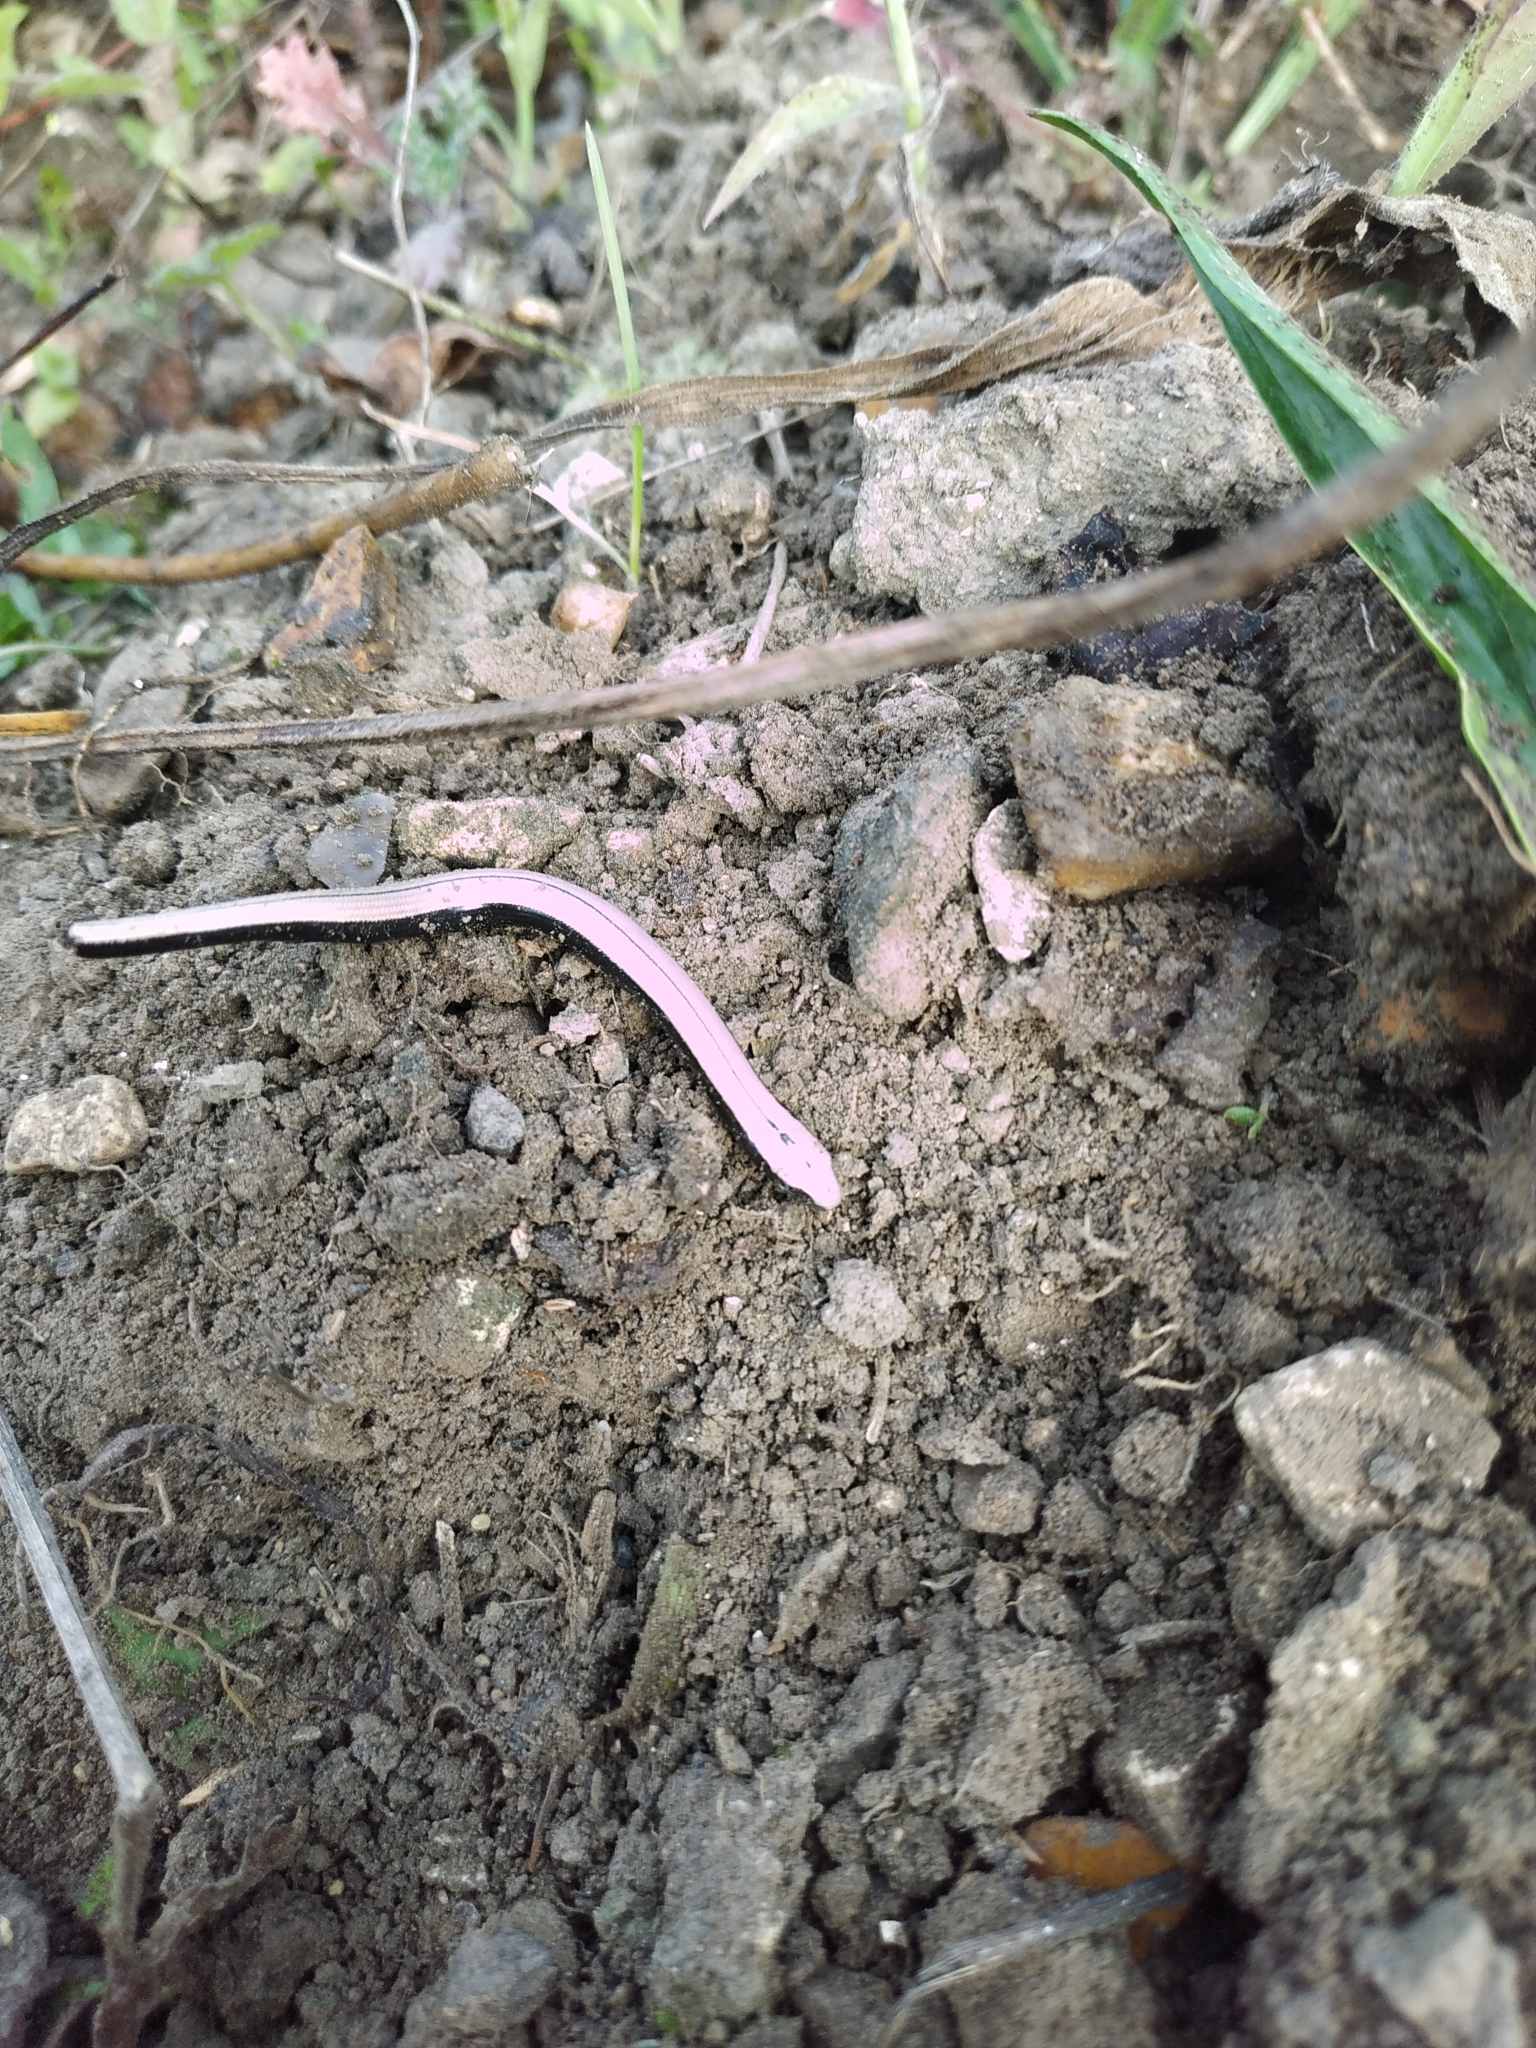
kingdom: Animalia
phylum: Chordata
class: Squamata
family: Anguidae
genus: Anguis
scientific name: Anguis fragilis
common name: Slow worm
